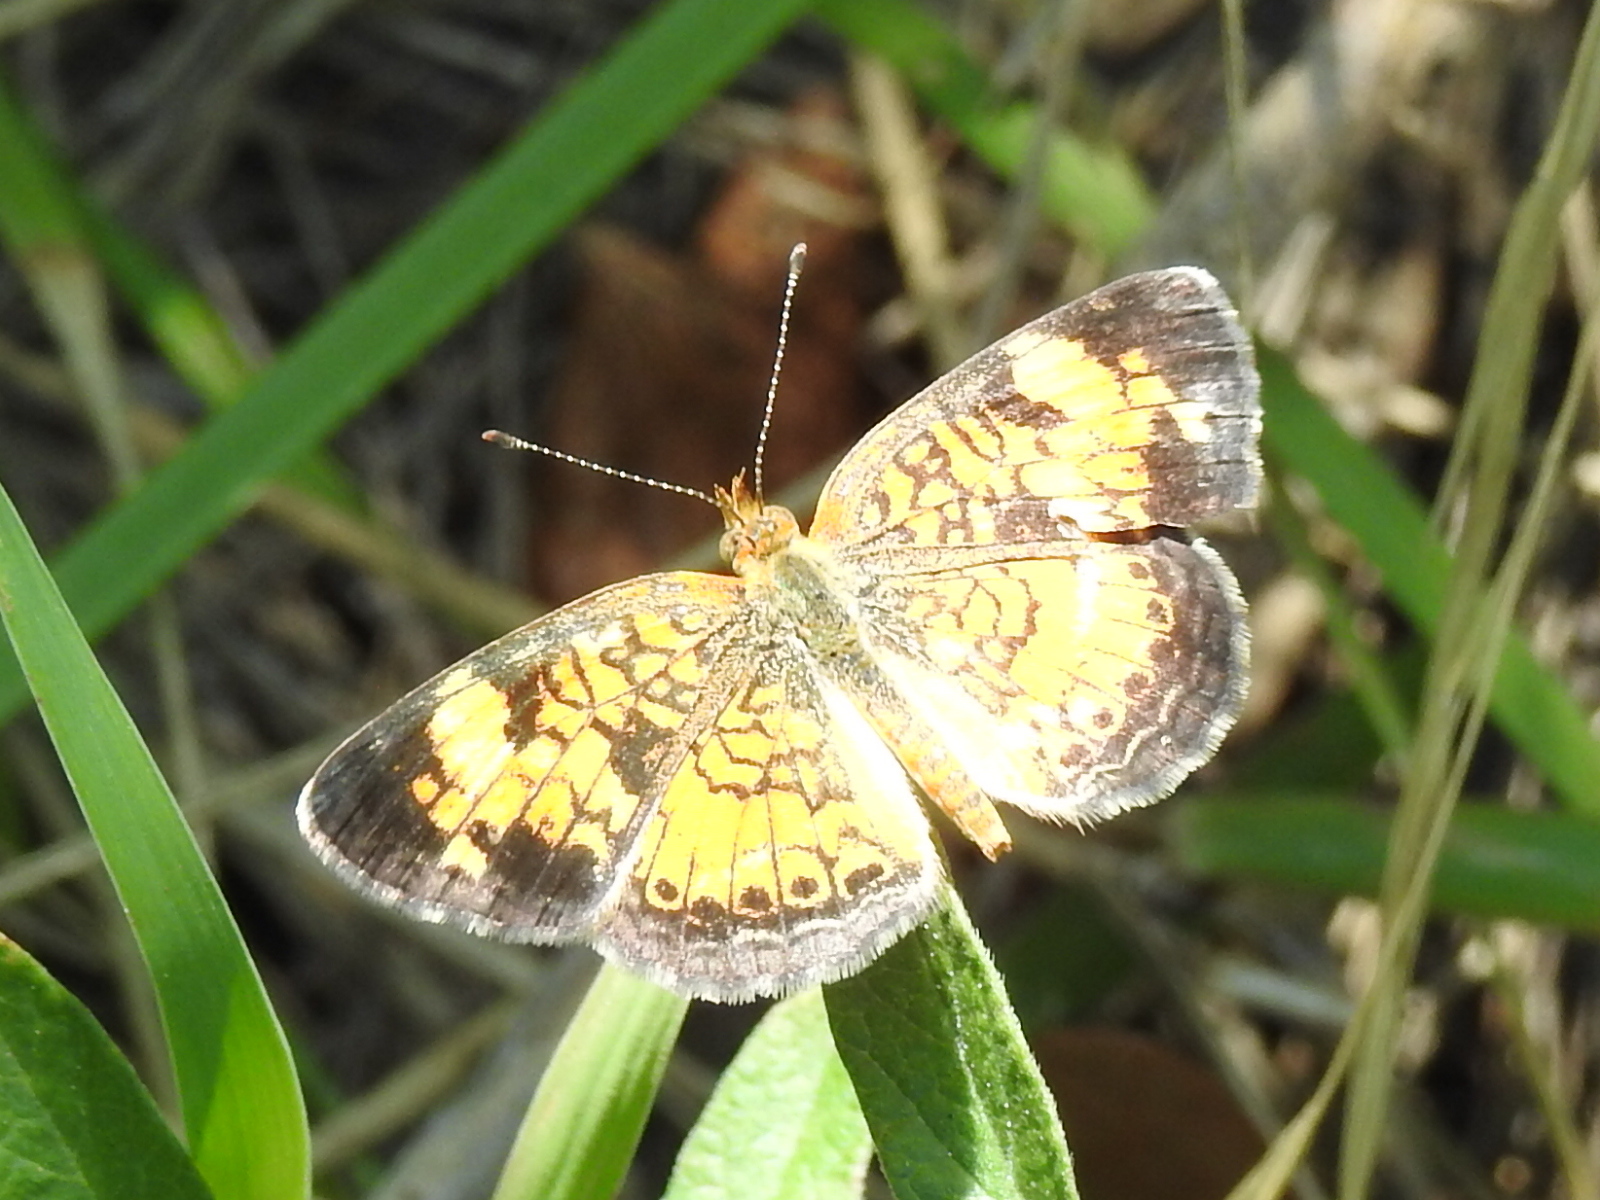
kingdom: Animalia
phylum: Arthropoda
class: Insecta
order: Lepidoptera
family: Nymphalidae
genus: Phyciodes
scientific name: Phyciodes tharos
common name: Pearl crescent
